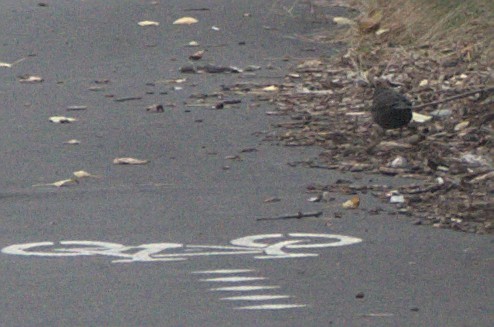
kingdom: Animalia
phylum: Chordata
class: Aves
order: Passeriformes
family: Turdidae
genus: Turdus
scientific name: Turdus merula
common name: Common blackbird
